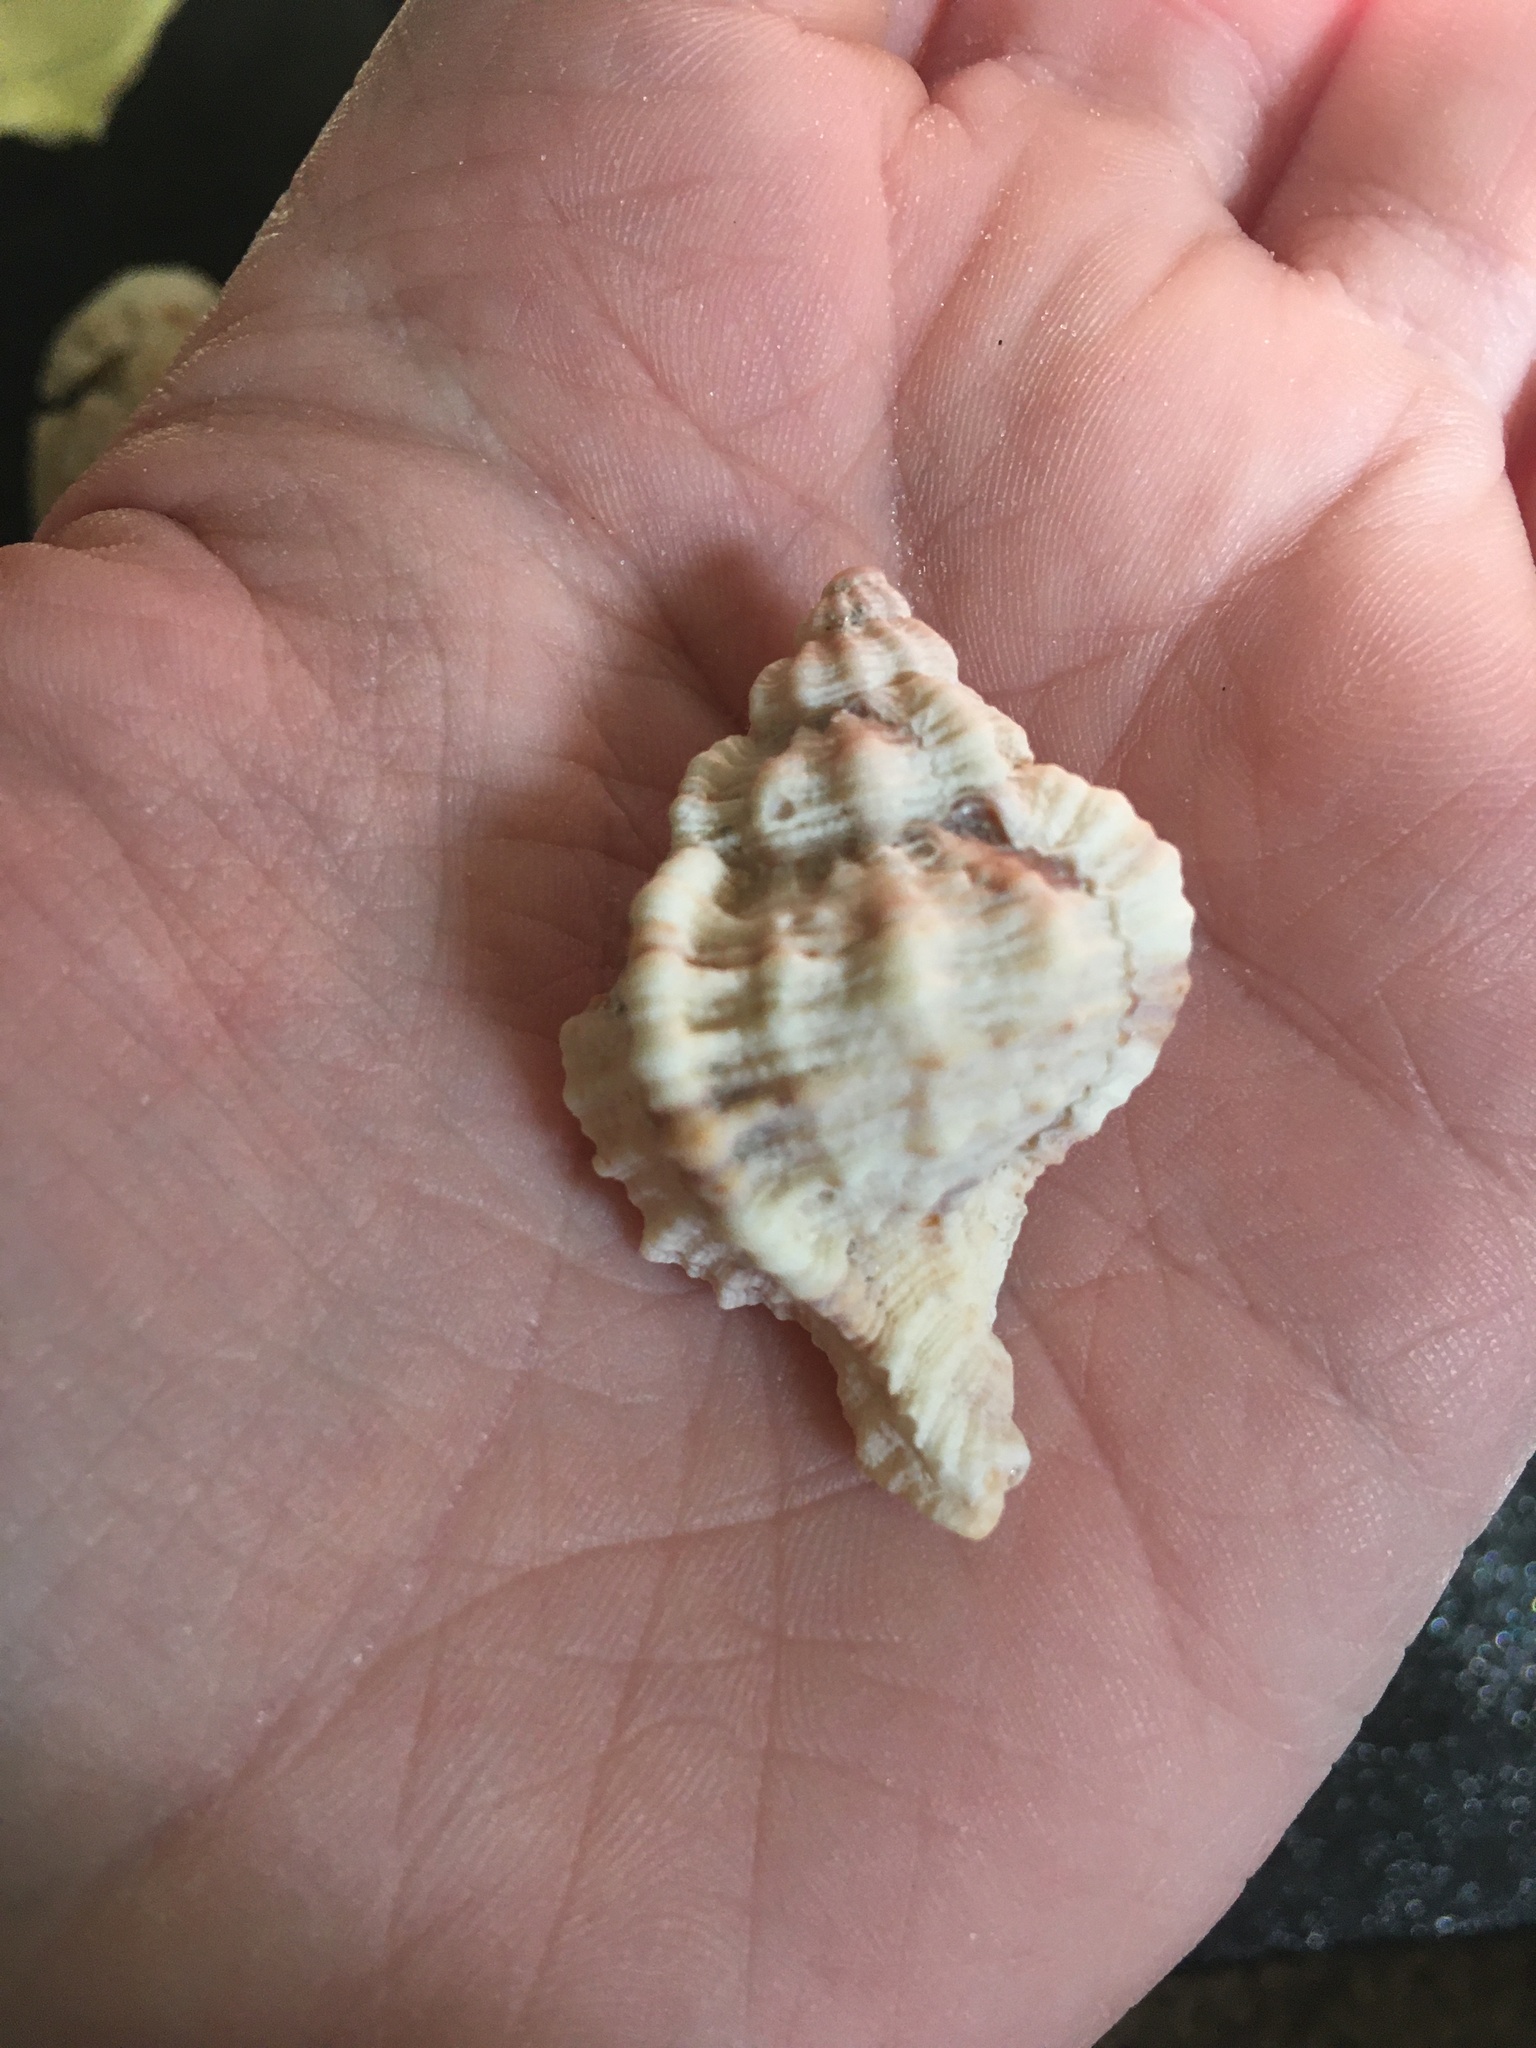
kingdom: Animalia
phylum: Mollusca
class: Gastropoda
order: Neogastropoda
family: Muricidae
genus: Phyllonotus
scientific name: Phyllonotus pomum
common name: Apple murex
